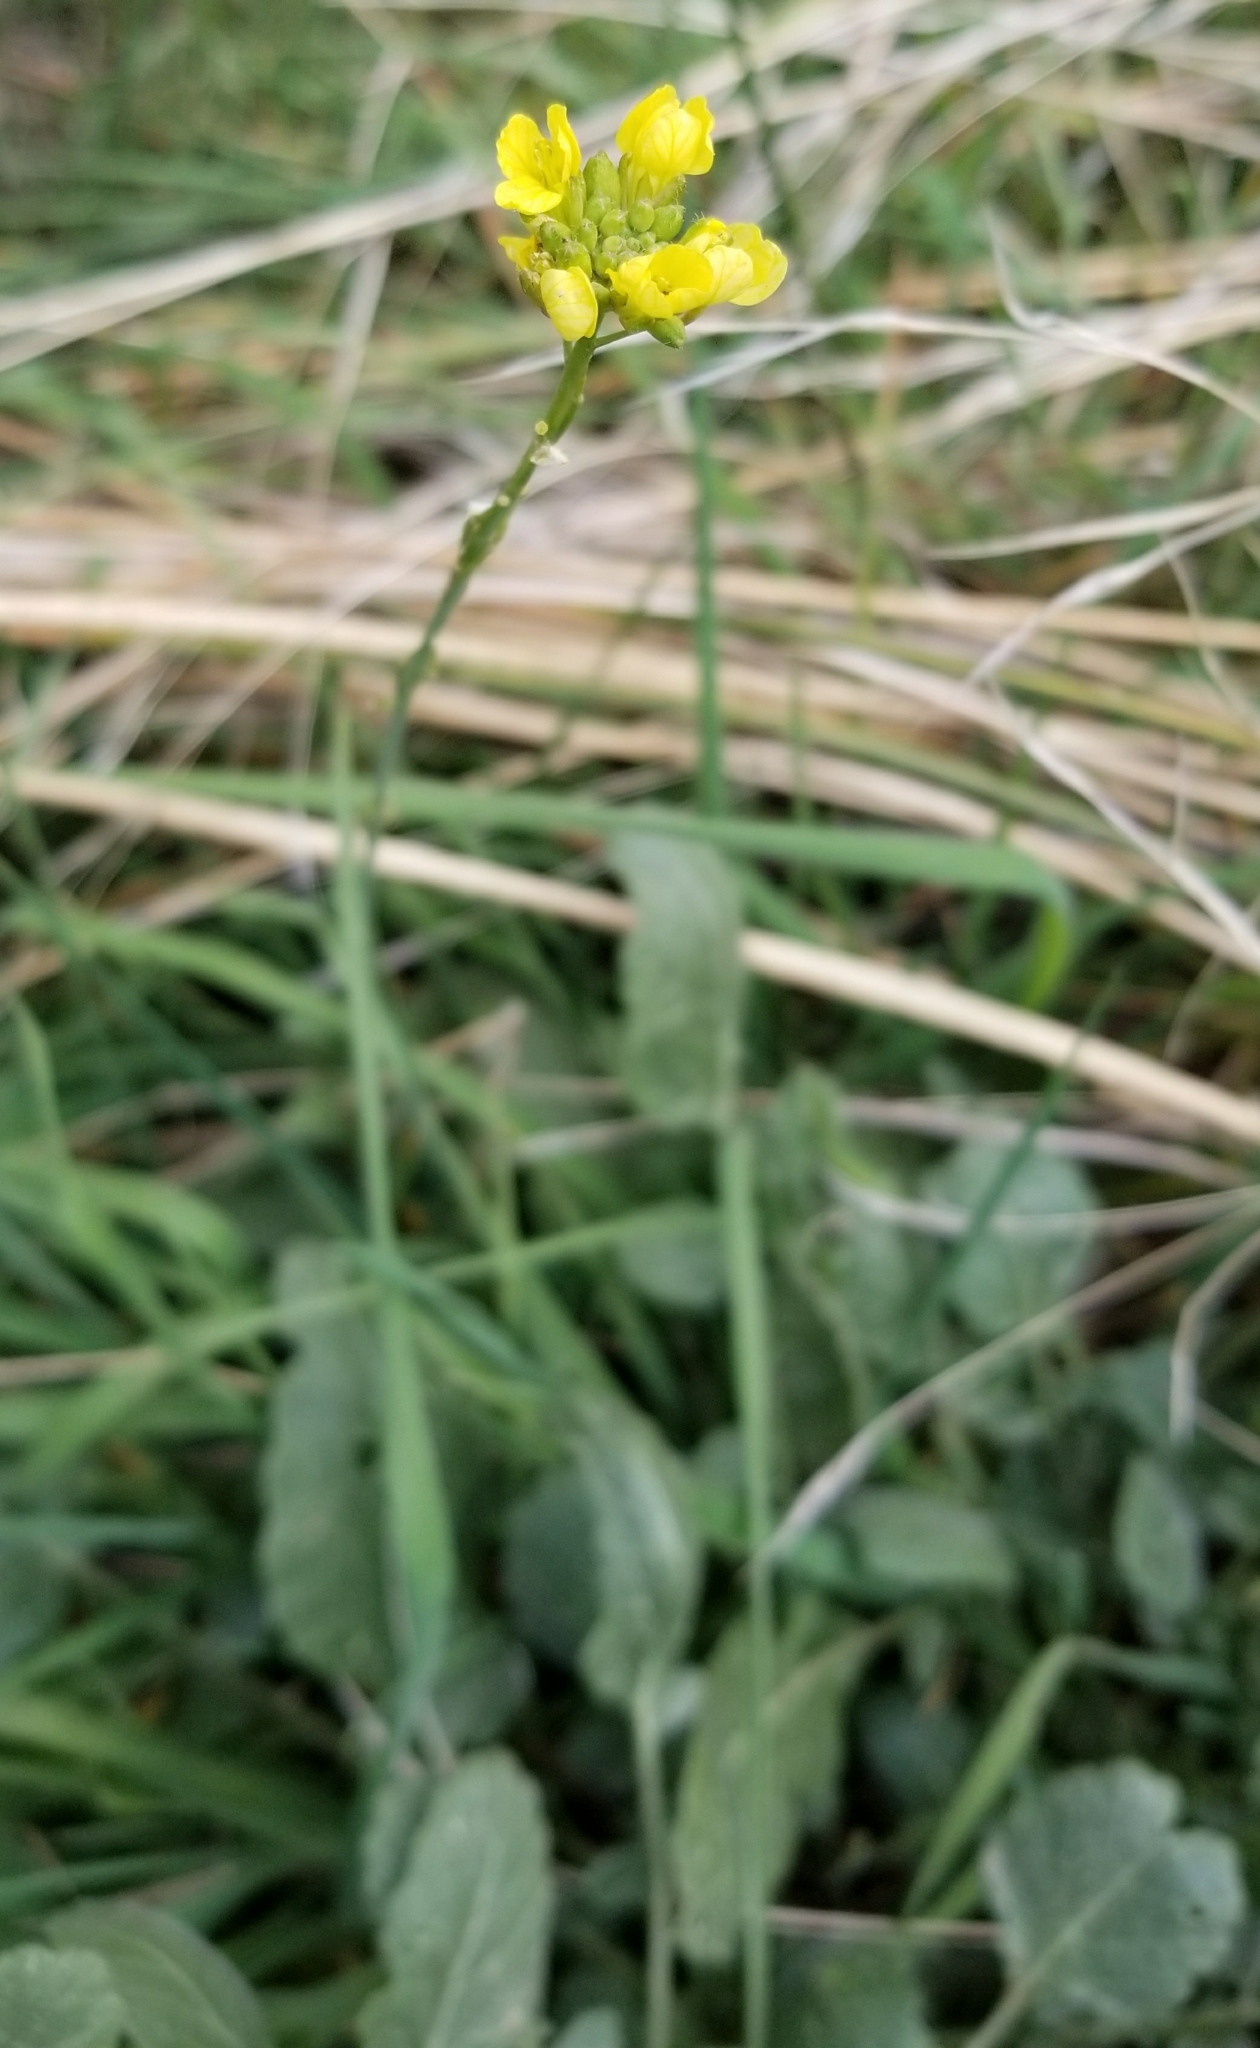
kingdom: Plantae
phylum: Tracheophyta
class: Magnoliopsida
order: Brassicales
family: Brassicaceae
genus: Hirschfeldia
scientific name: Hirschfeldia incana
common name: Hoary mustard
